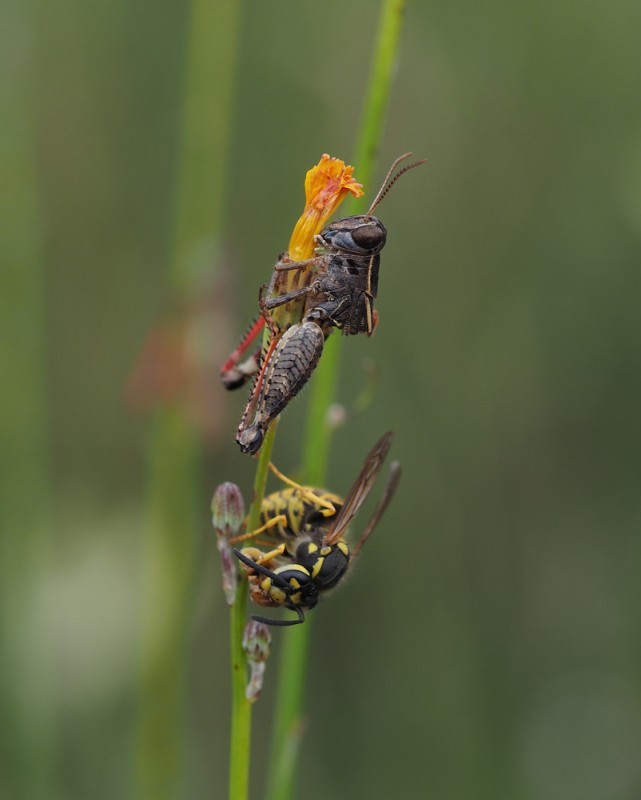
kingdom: Animalia
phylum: Arthropoda
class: Insecta
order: Hymenoptera
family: Vespidae
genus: Vespula
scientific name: Vespula germanica
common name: German wasp
